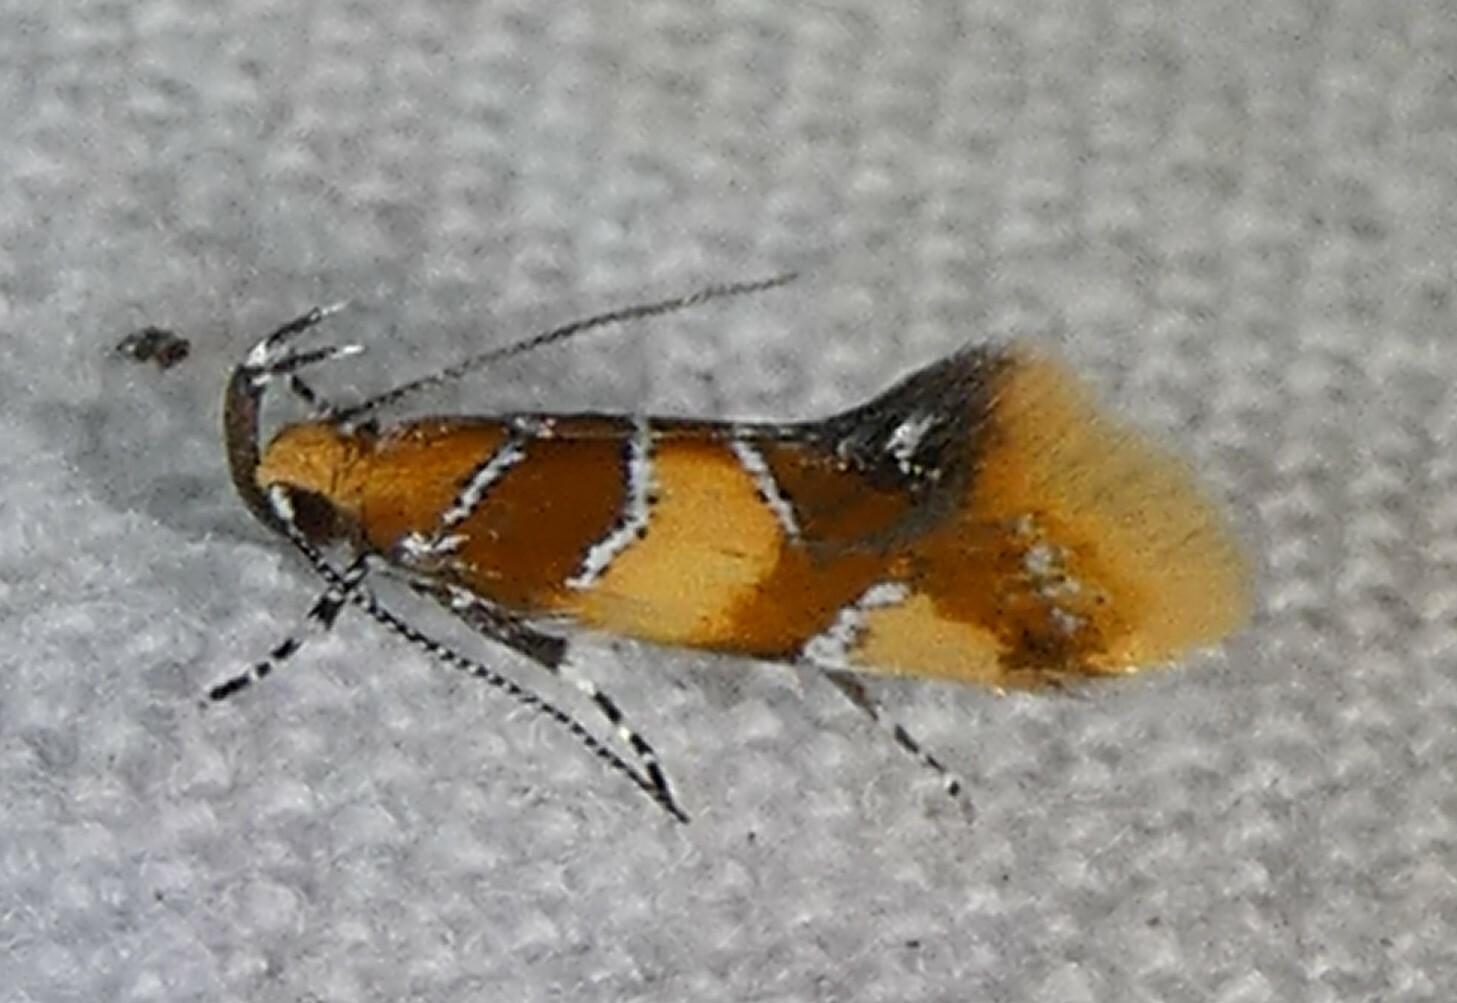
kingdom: Animalia
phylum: Arthropoda
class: Insecta
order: Lepidoptera
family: Oecophoridae
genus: Callima
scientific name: Callima argenticinctella
